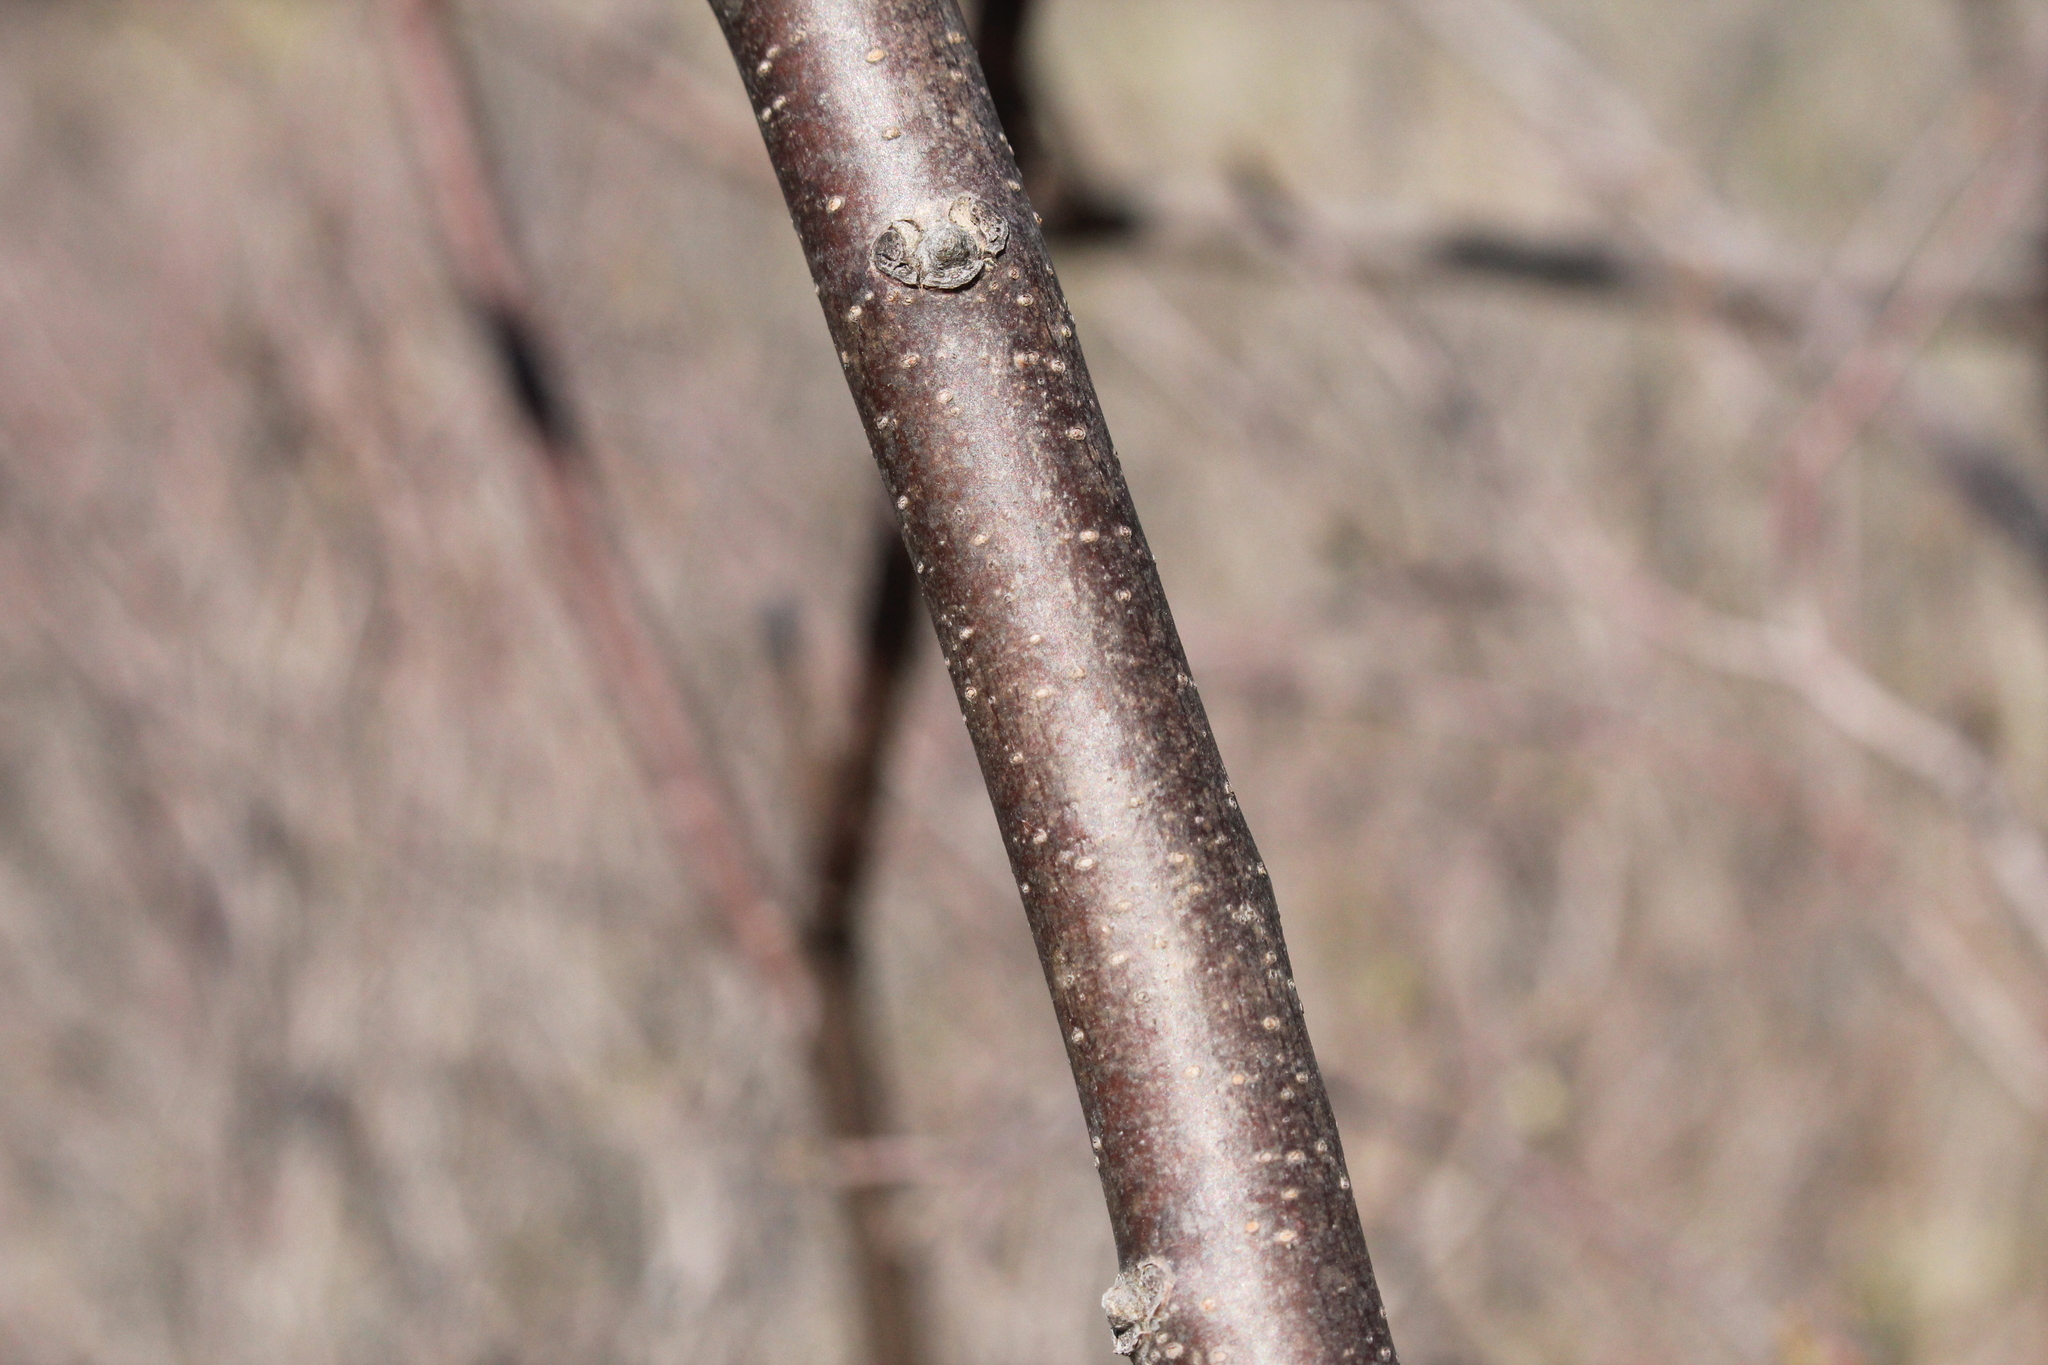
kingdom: Plantae
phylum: Tracheophyta
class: Magnoliopsida
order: Sapindales
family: Anacardiaceae
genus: Rhus
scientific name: Rhus glabra
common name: Scarlet sumac
